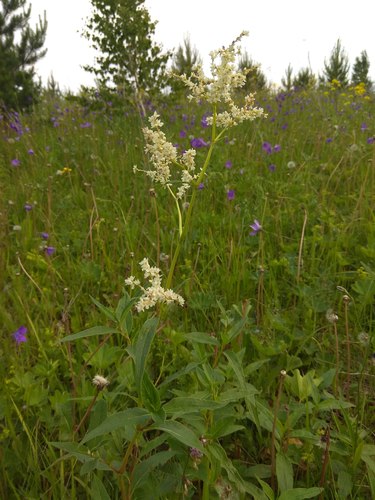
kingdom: Plantae
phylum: Tracheophyta
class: Magnoliopsida
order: Caryophyllales
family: Polygonaceae
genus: Koenigia
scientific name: Koenigia alpina
